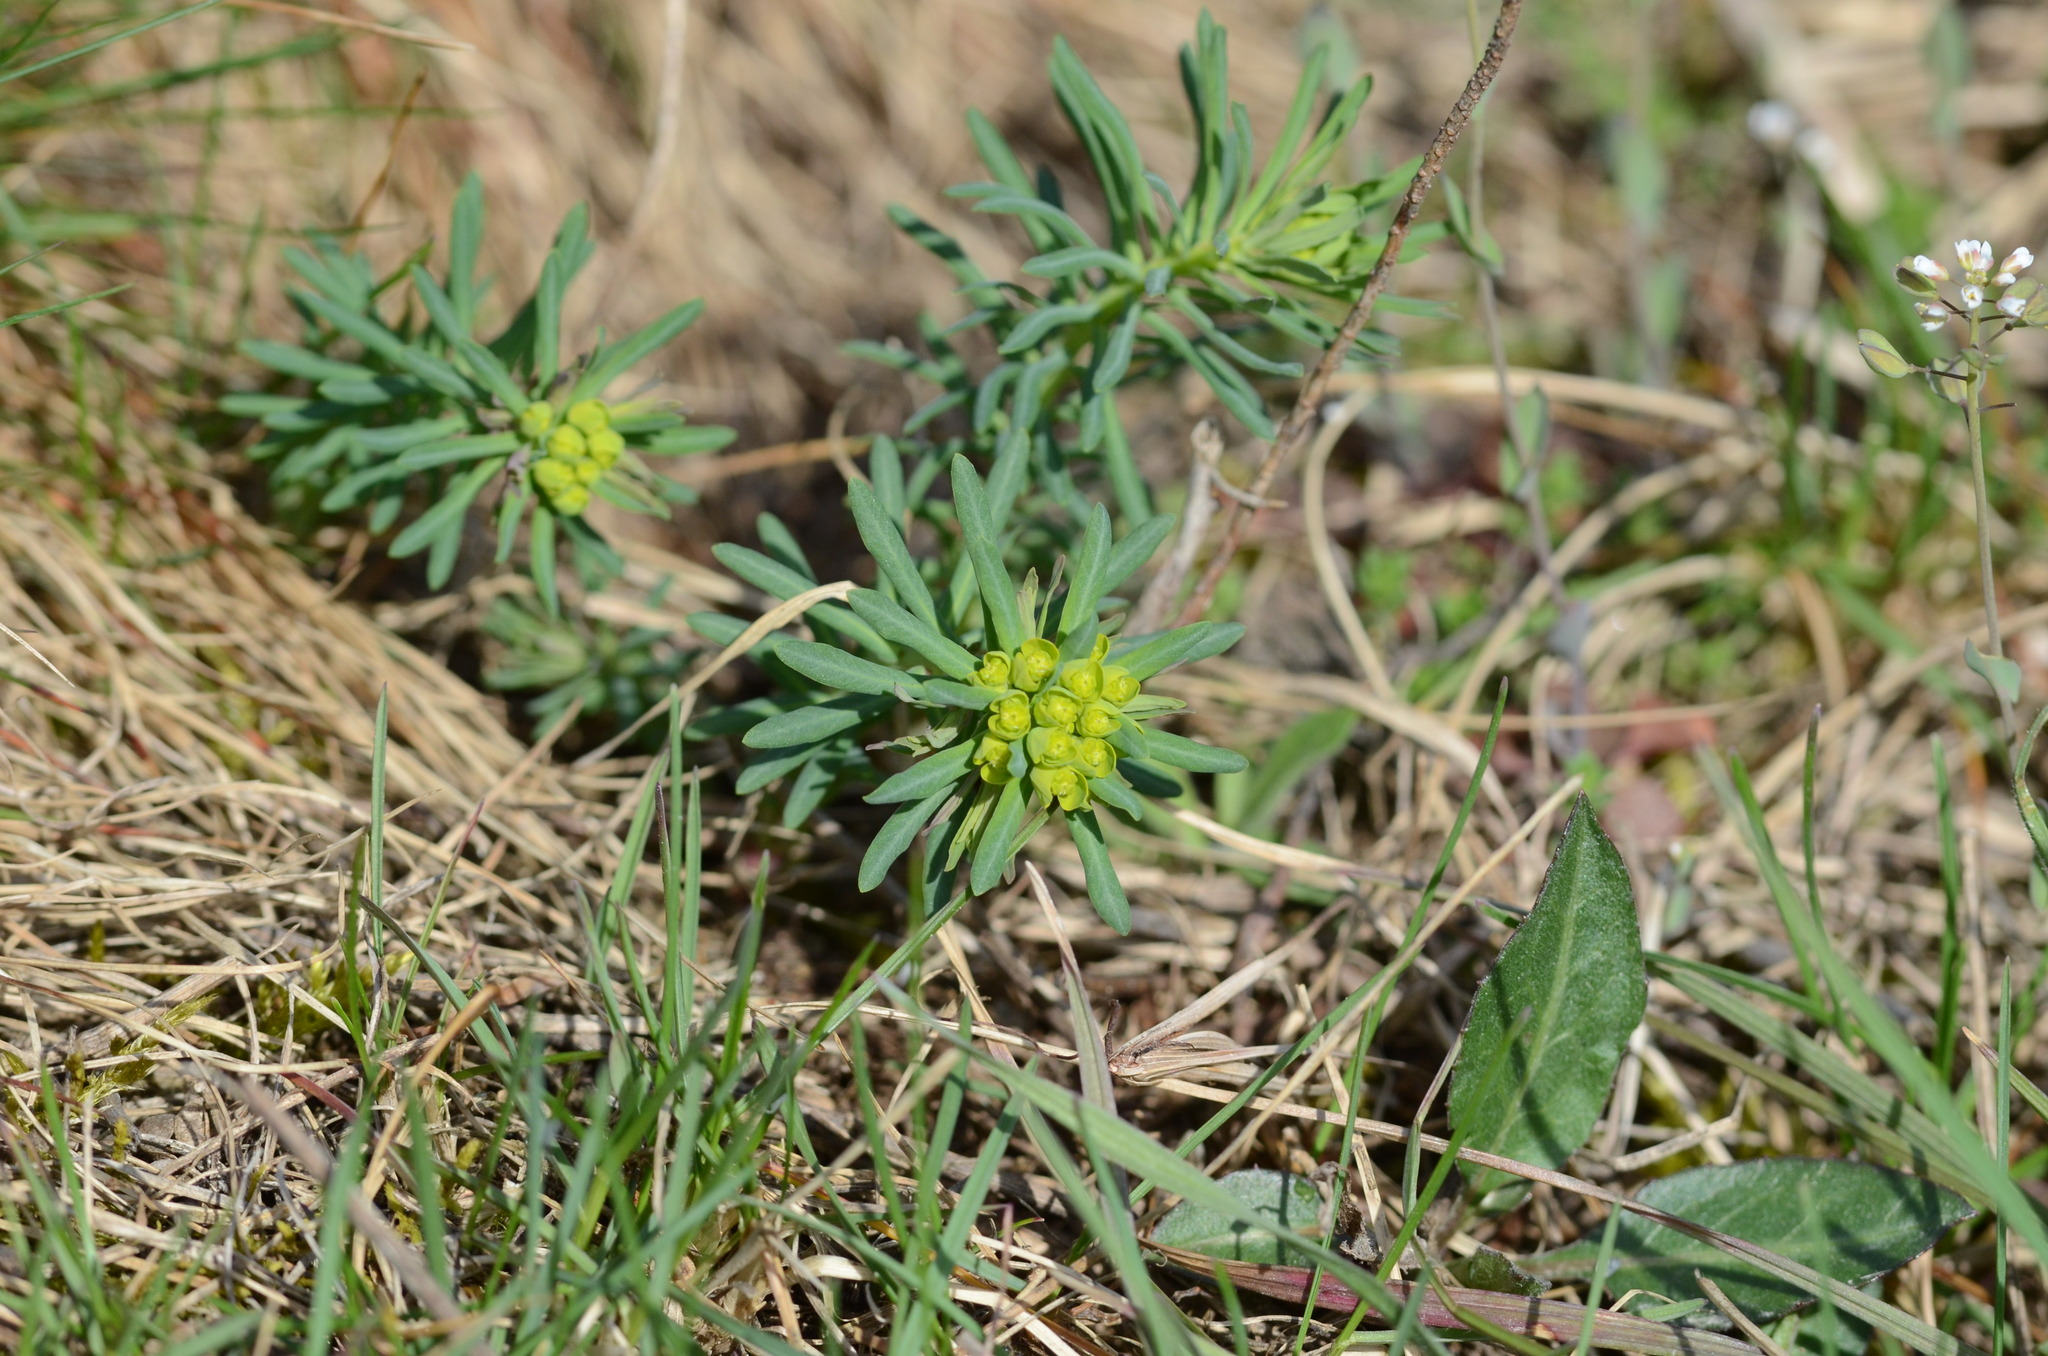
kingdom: Plantae
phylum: Tracheophyta
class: Magnoliopsida
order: Malpighiales
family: Euphorbiaceae
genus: Euphorbia
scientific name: Euphorbia cyparissias
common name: Cypress spurge
